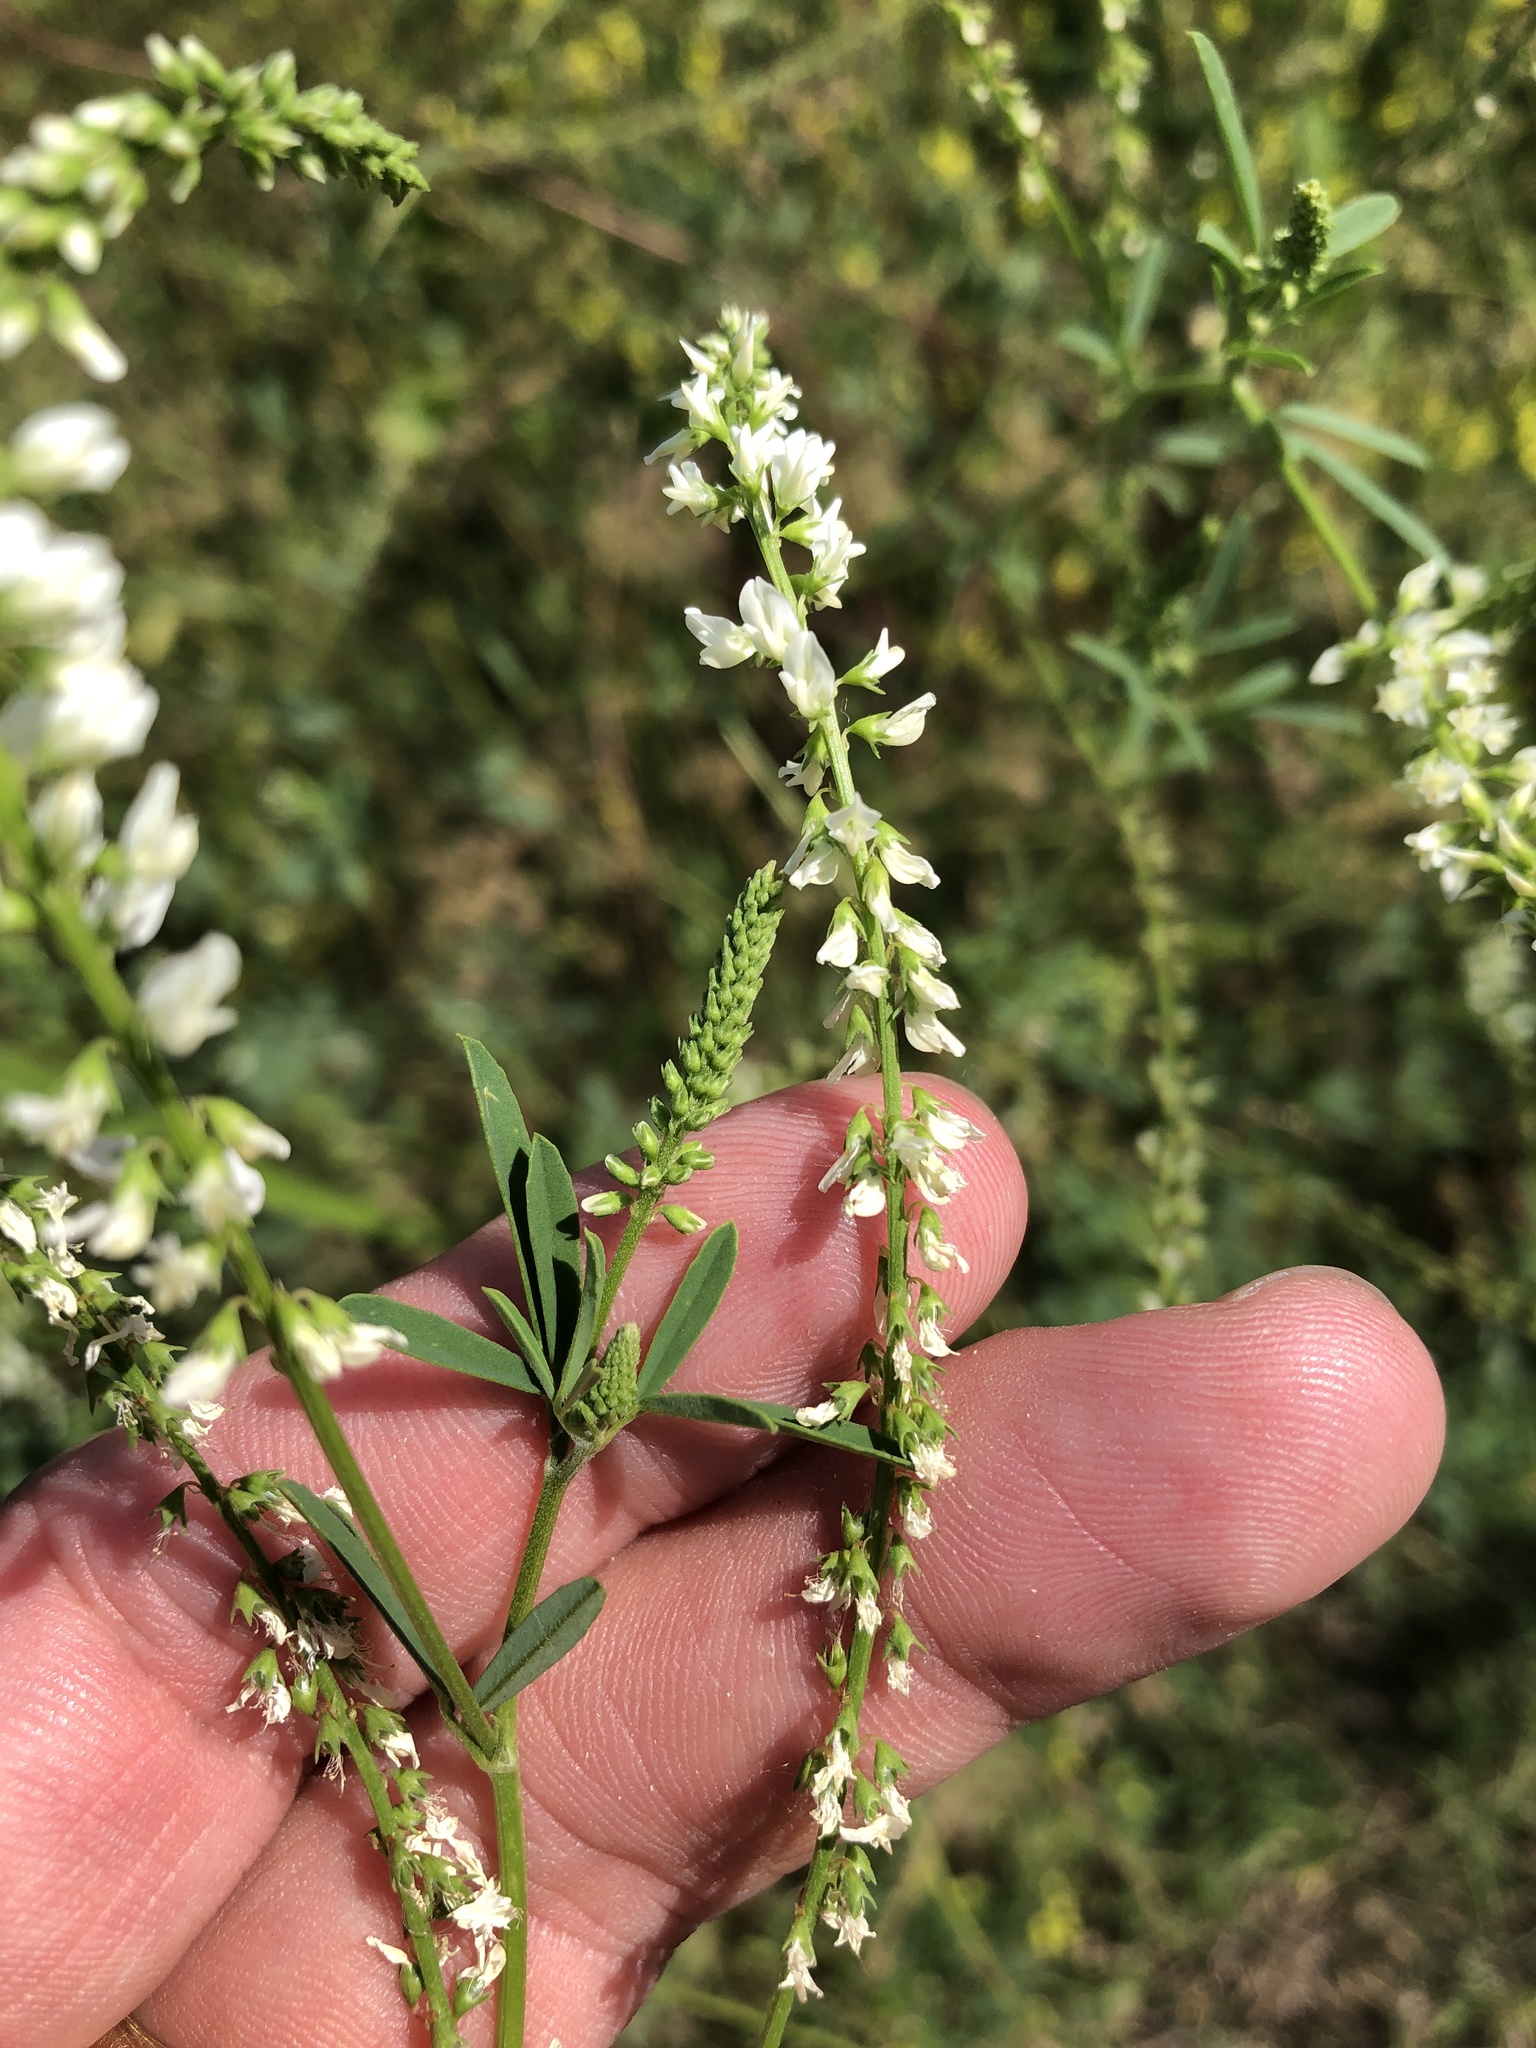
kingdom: Plantae
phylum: Tracheophyta
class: Magnoliopsida
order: Fabales
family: Fabaceae
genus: Melilotus
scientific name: Melilotus albus
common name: White melilot
